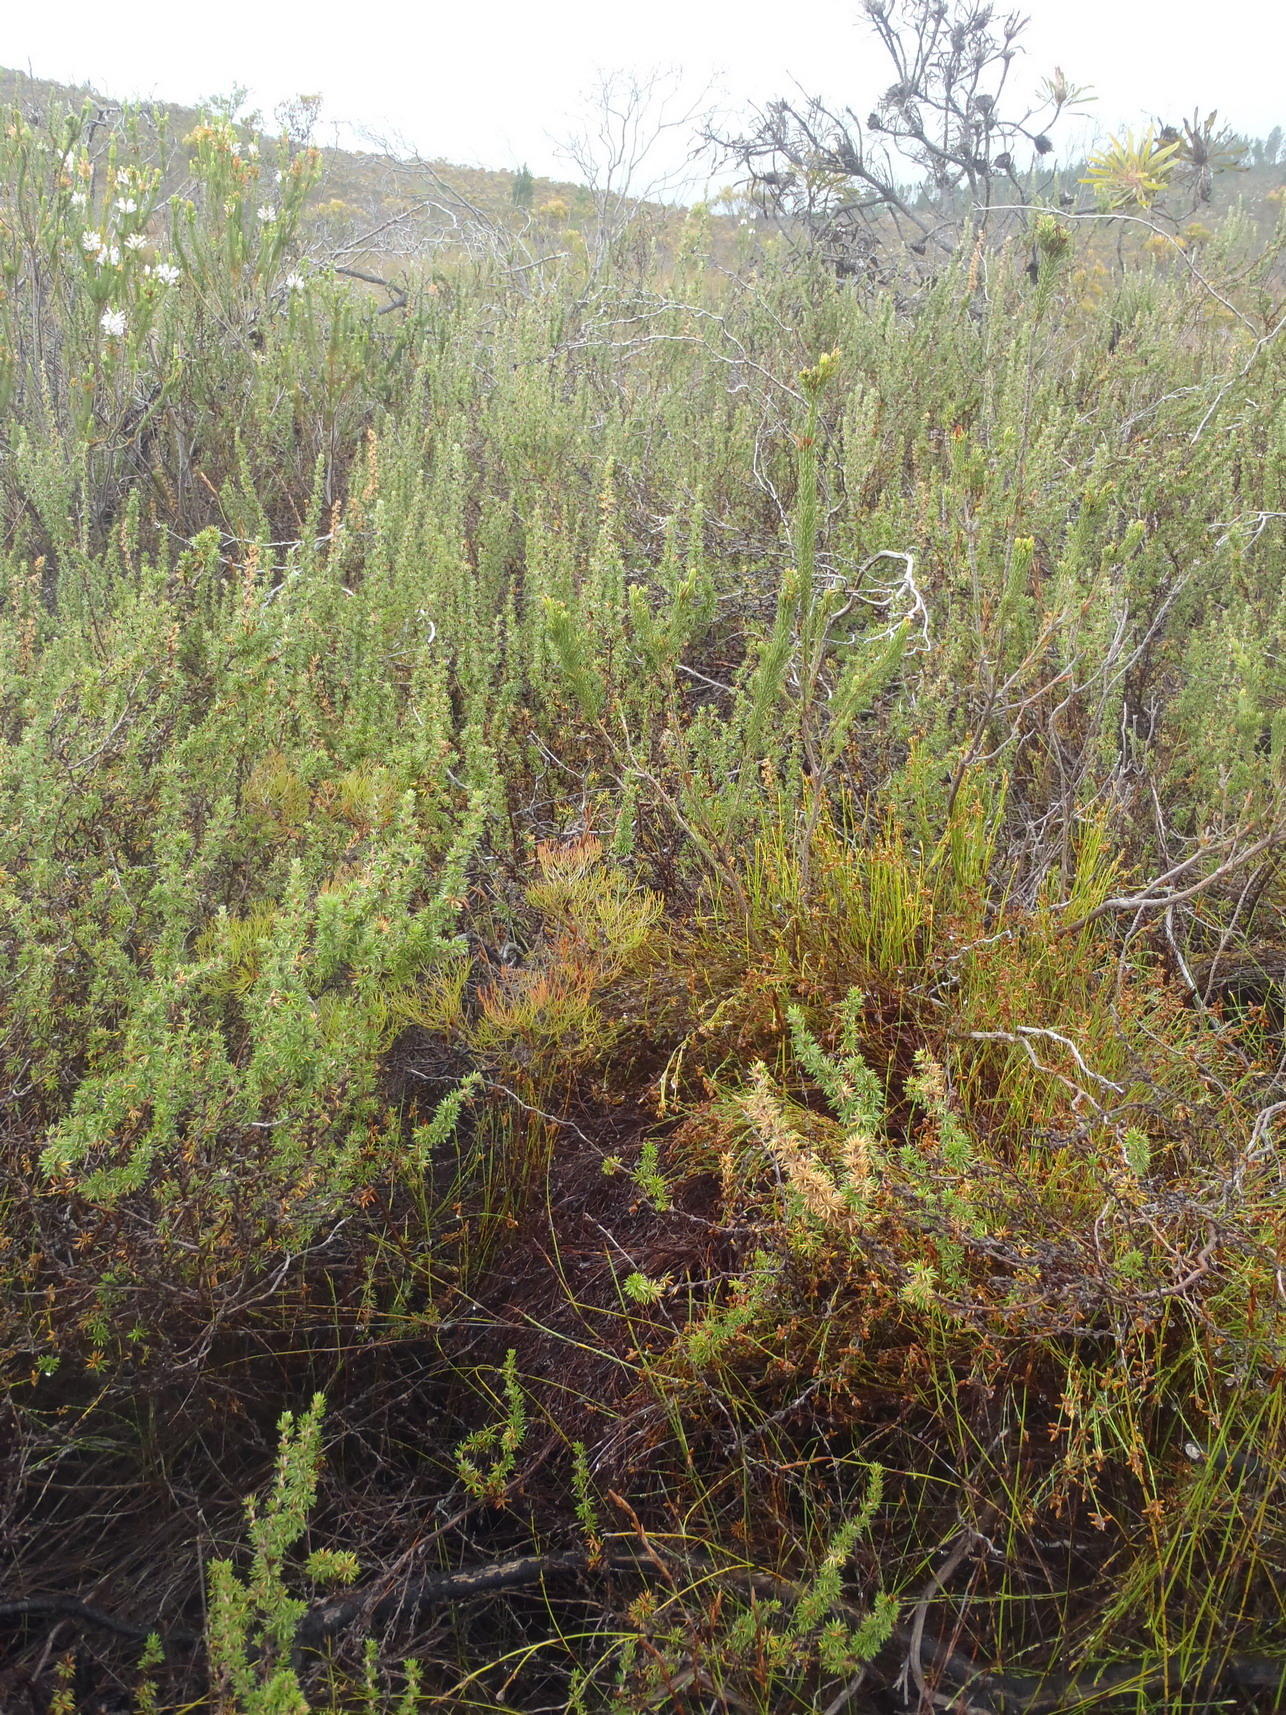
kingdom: Plantae
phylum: Tracheophyta
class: Magnoliopsida
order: Rosales
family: Rosaceae
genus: Cliffortia
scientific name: Cliffortia stricta
